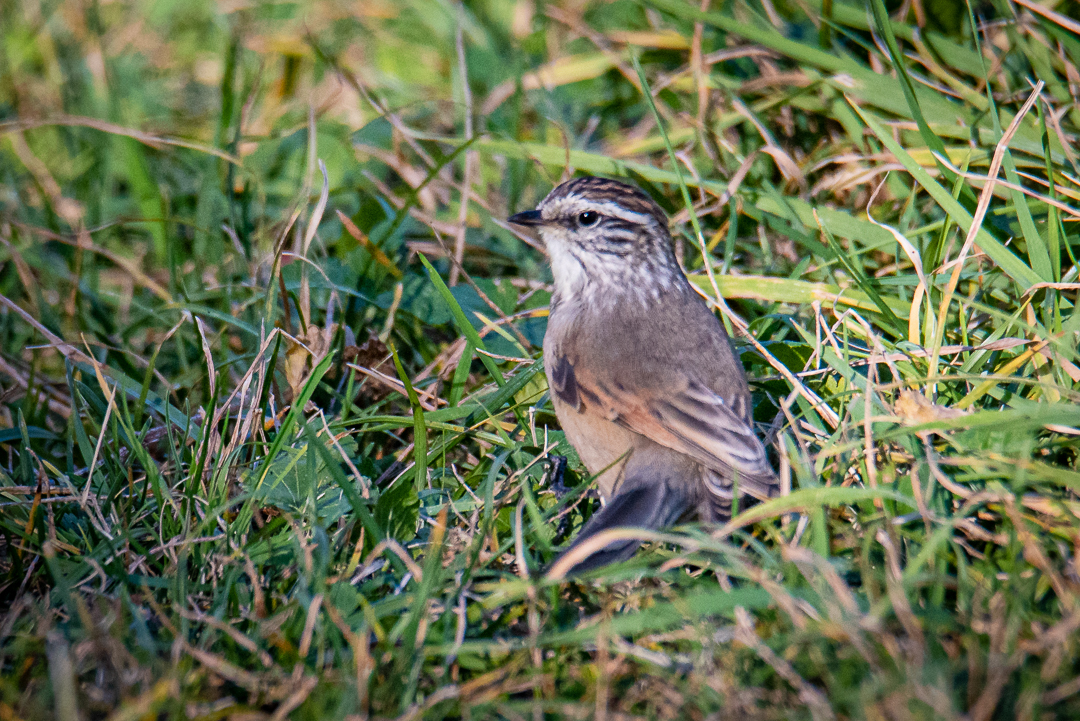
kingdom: Animalia
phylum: Chordata
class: Aves
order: Passeriformes
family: Furnariidae
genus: Leptasthenura
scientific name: Leptasthenura aegithaloides
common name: Plain-mantled tit-spinetail
